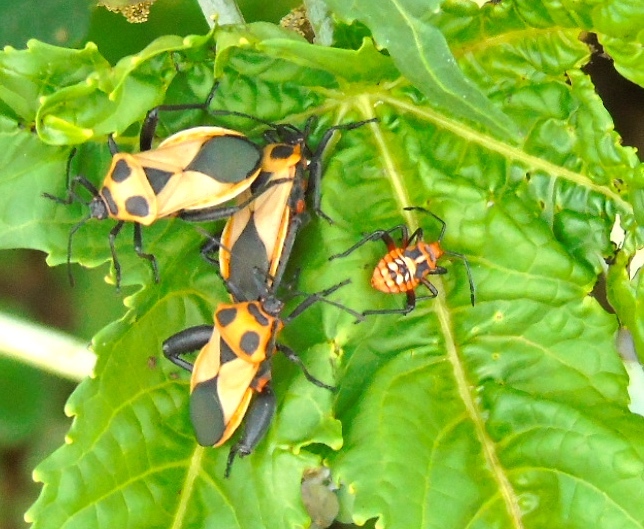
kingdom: Animalia
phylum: Arthropoda
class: Insecta
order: Hemiptera
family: Coreidae
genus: Sagotylus
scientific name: Sagotylus confluens
